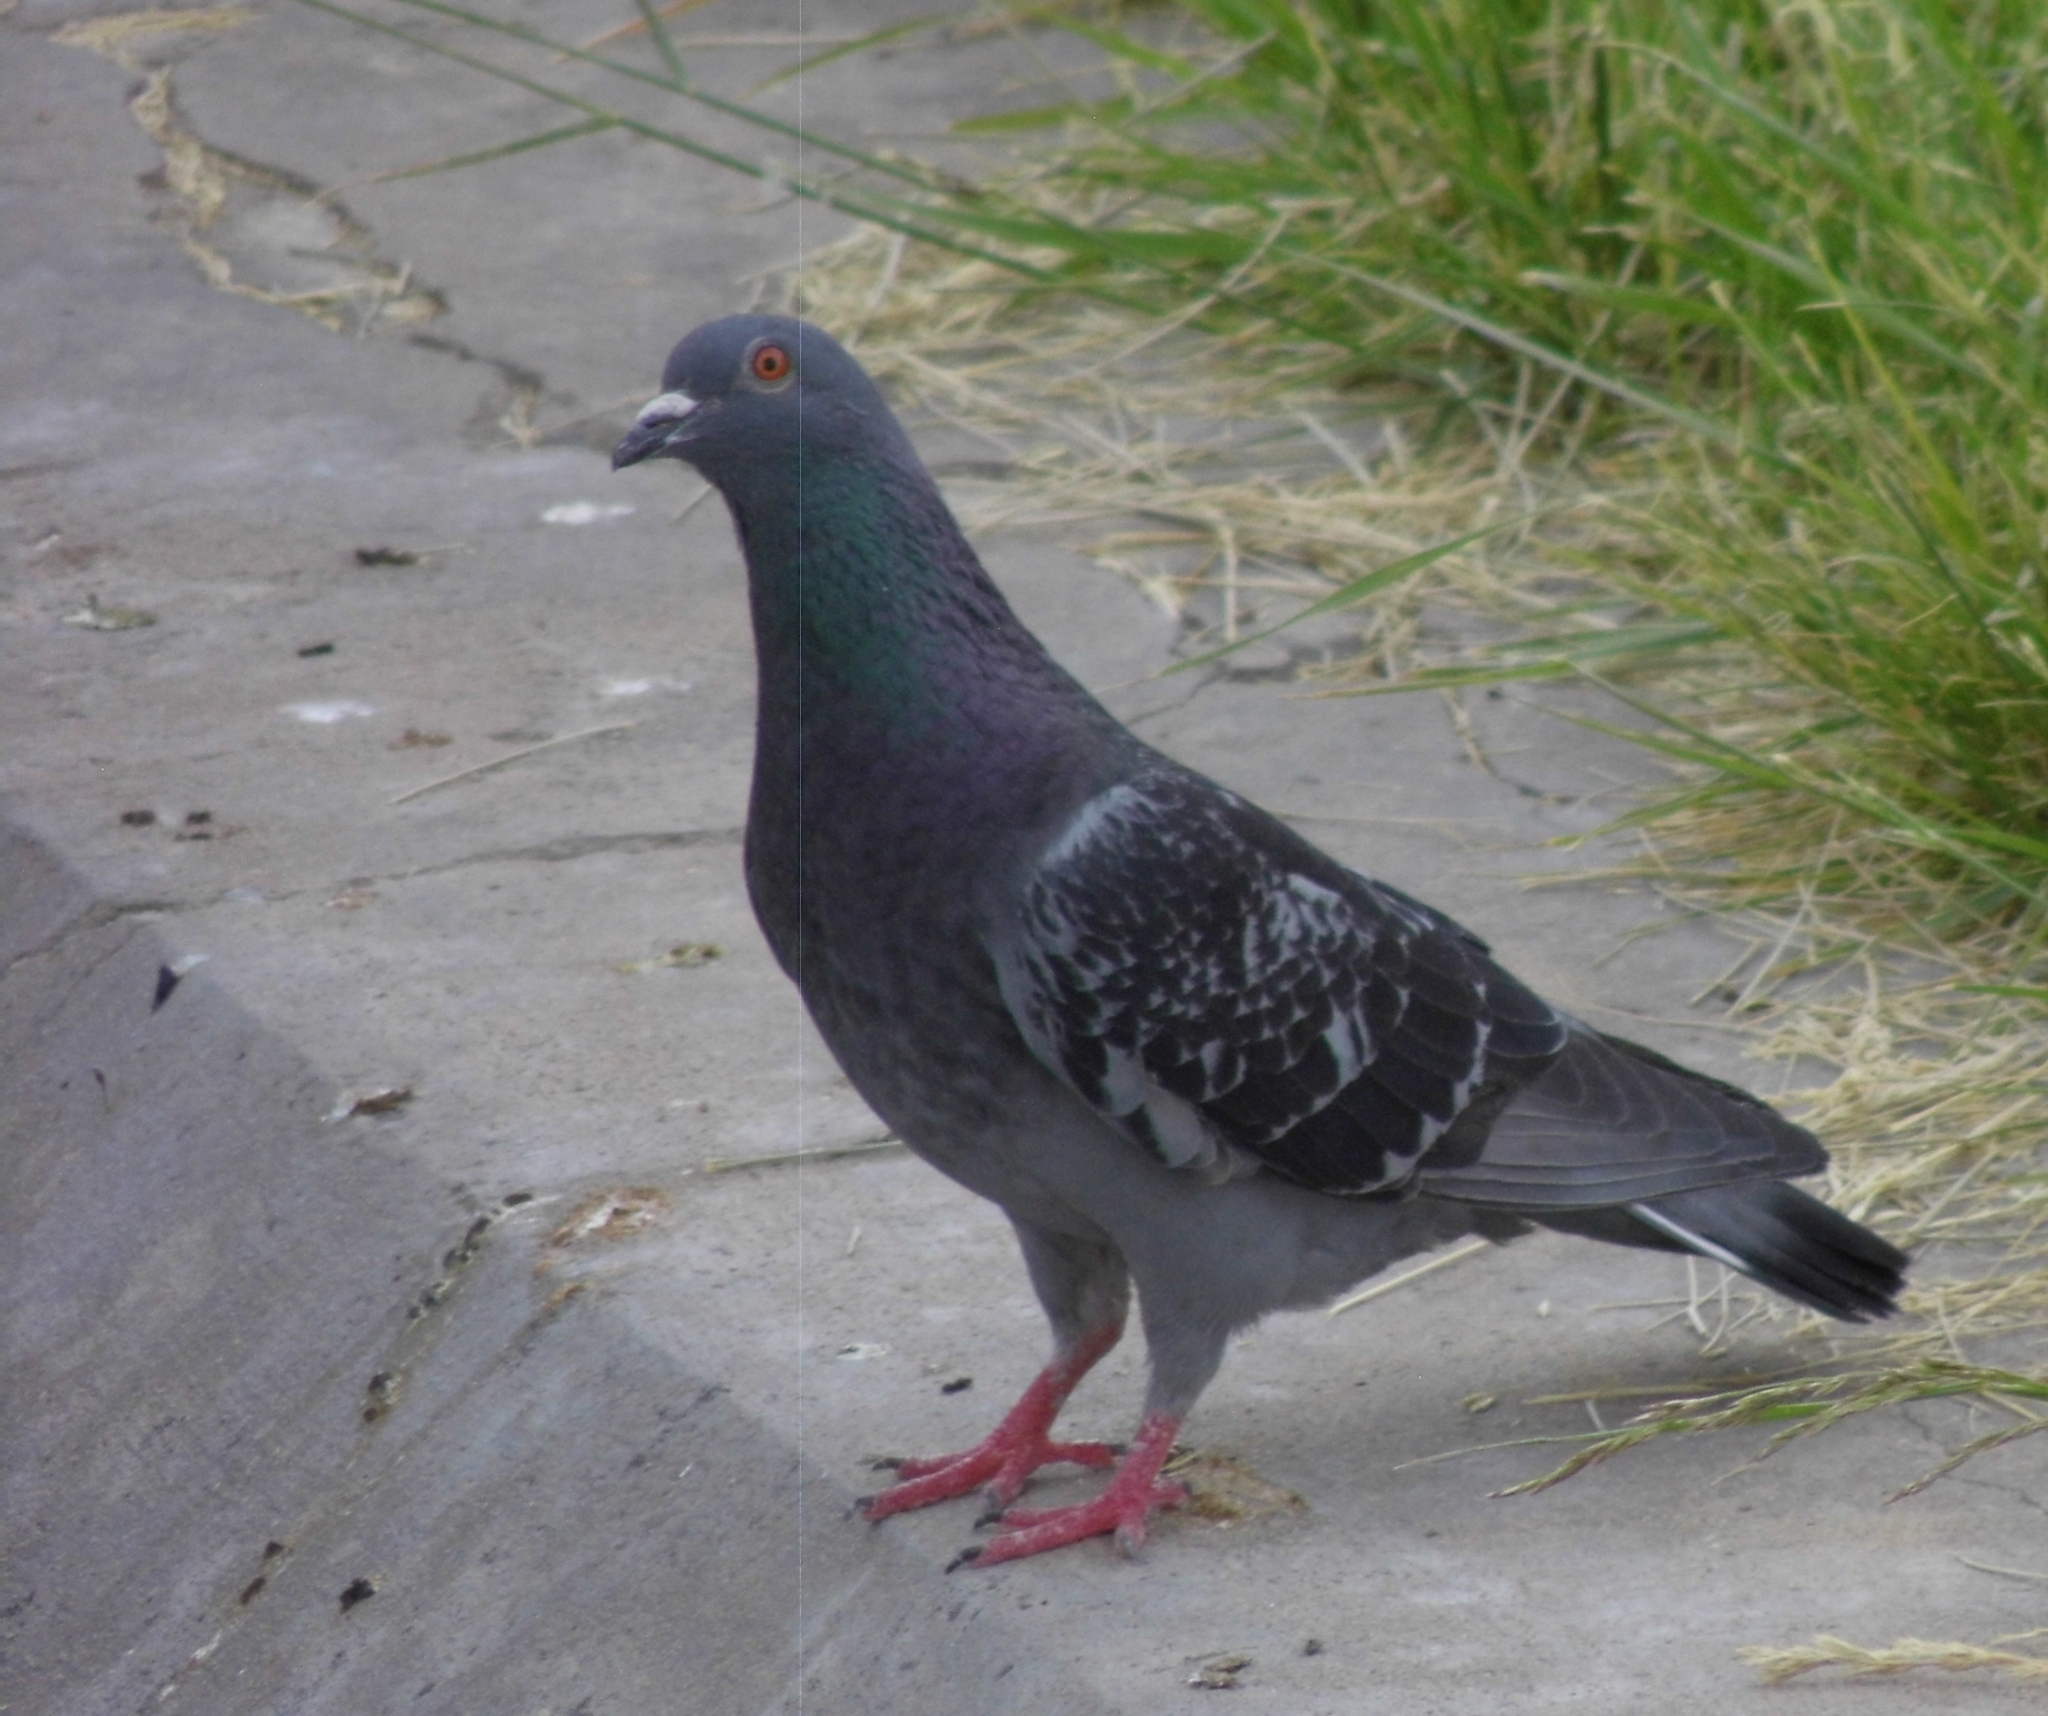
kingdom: Animalia
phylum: Chordata
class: Aves
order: Columbiformes
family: Columbidae
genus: Columba
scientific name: Columba livia
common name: Rock pigeon
